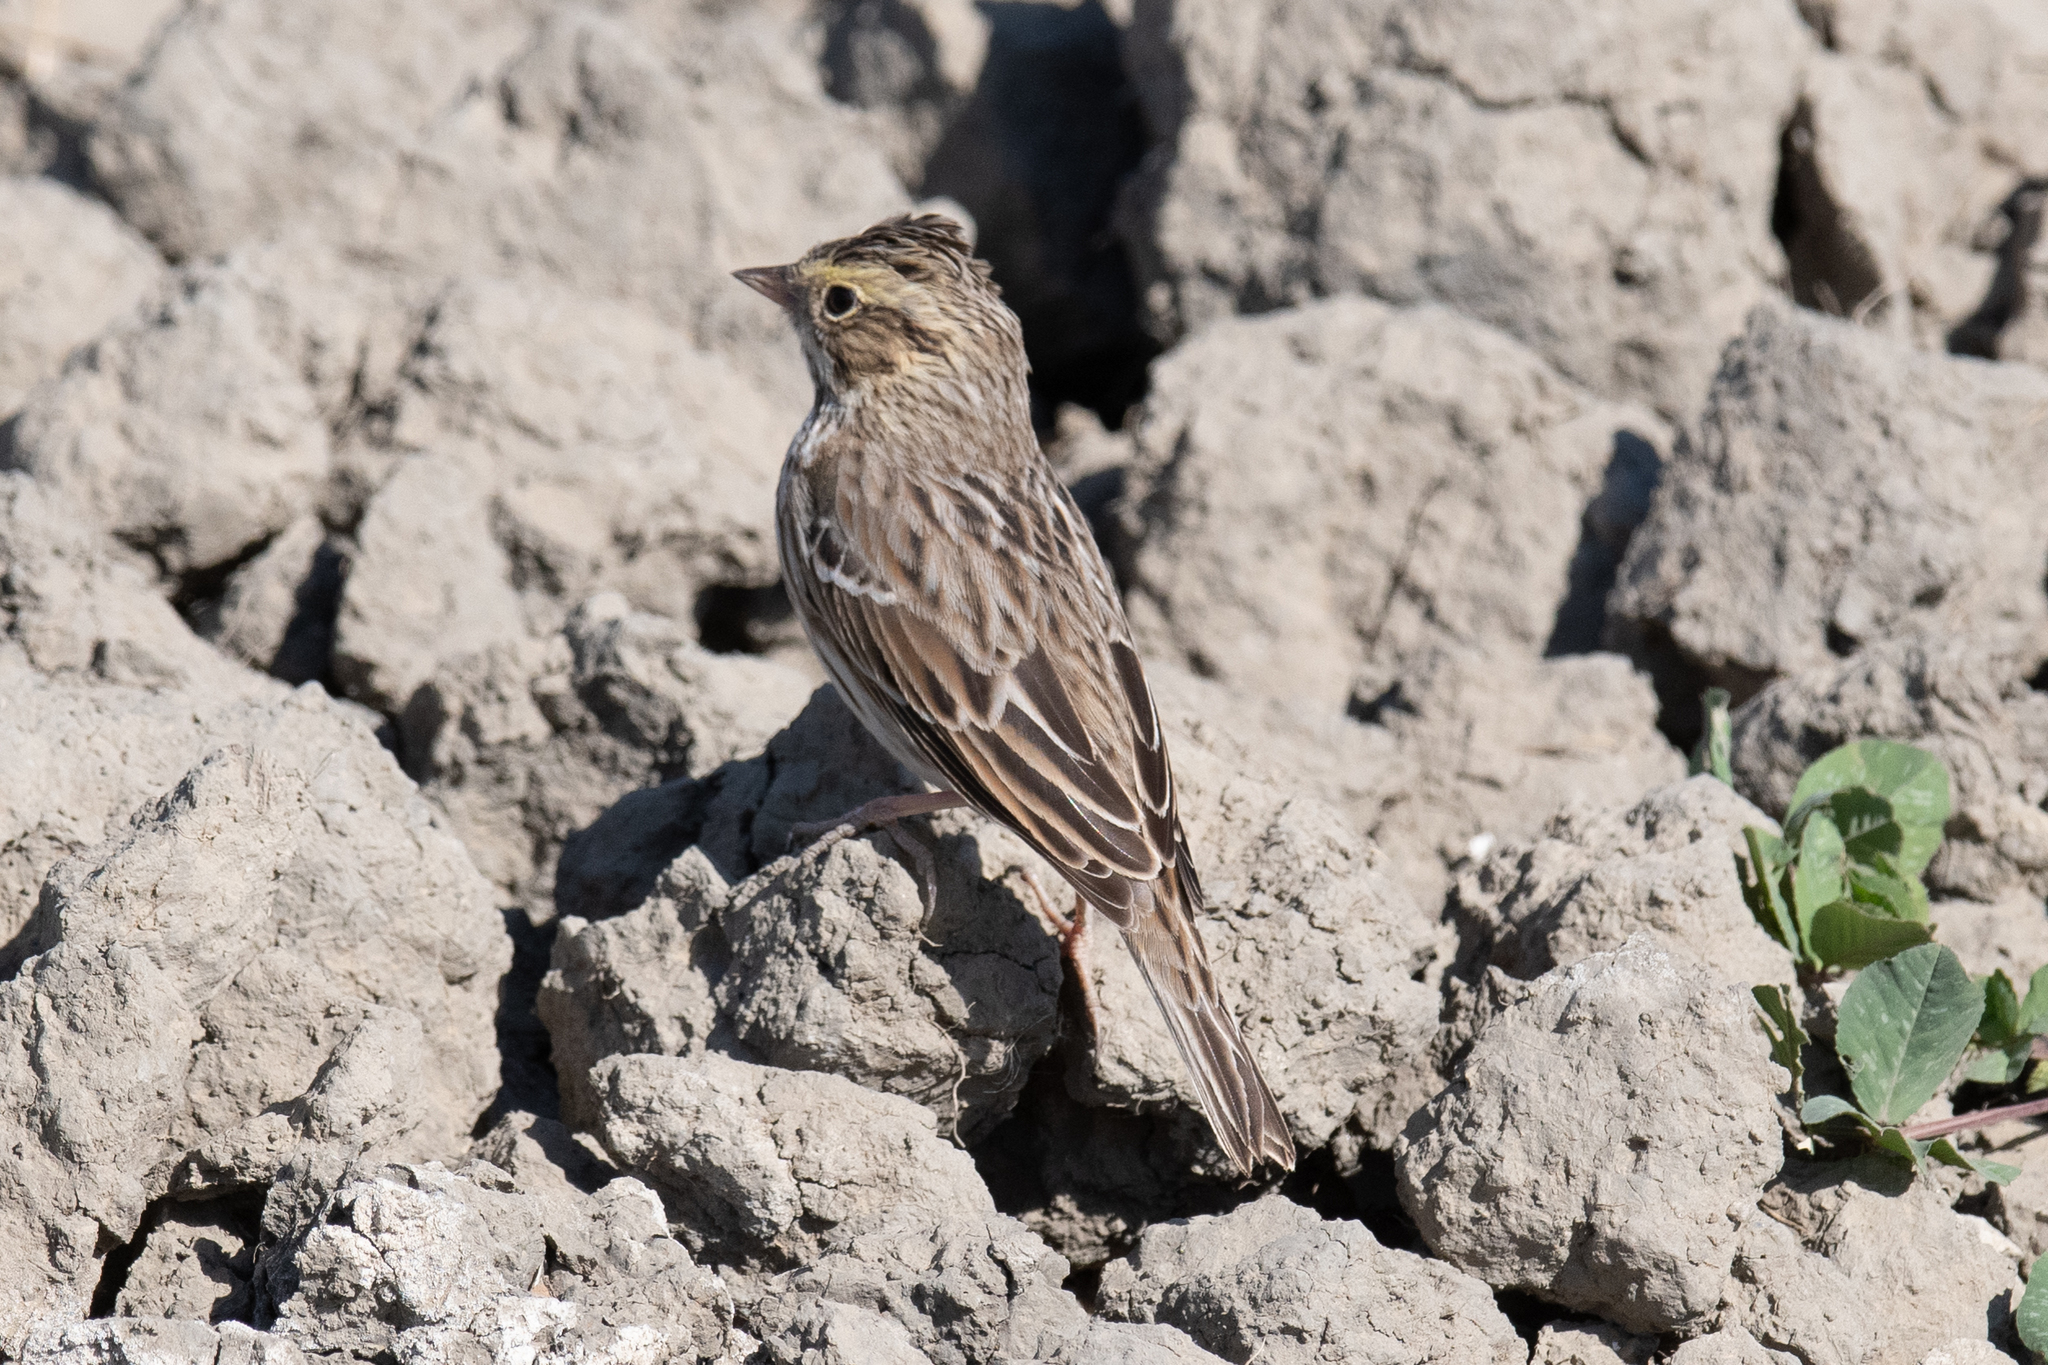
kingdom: Animalia
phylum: Chordata
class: Aves
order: Passeriformes
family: Passerellidae
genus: Passerculus
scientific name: Passerculus sandwichensis
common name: Savannah sparrow
